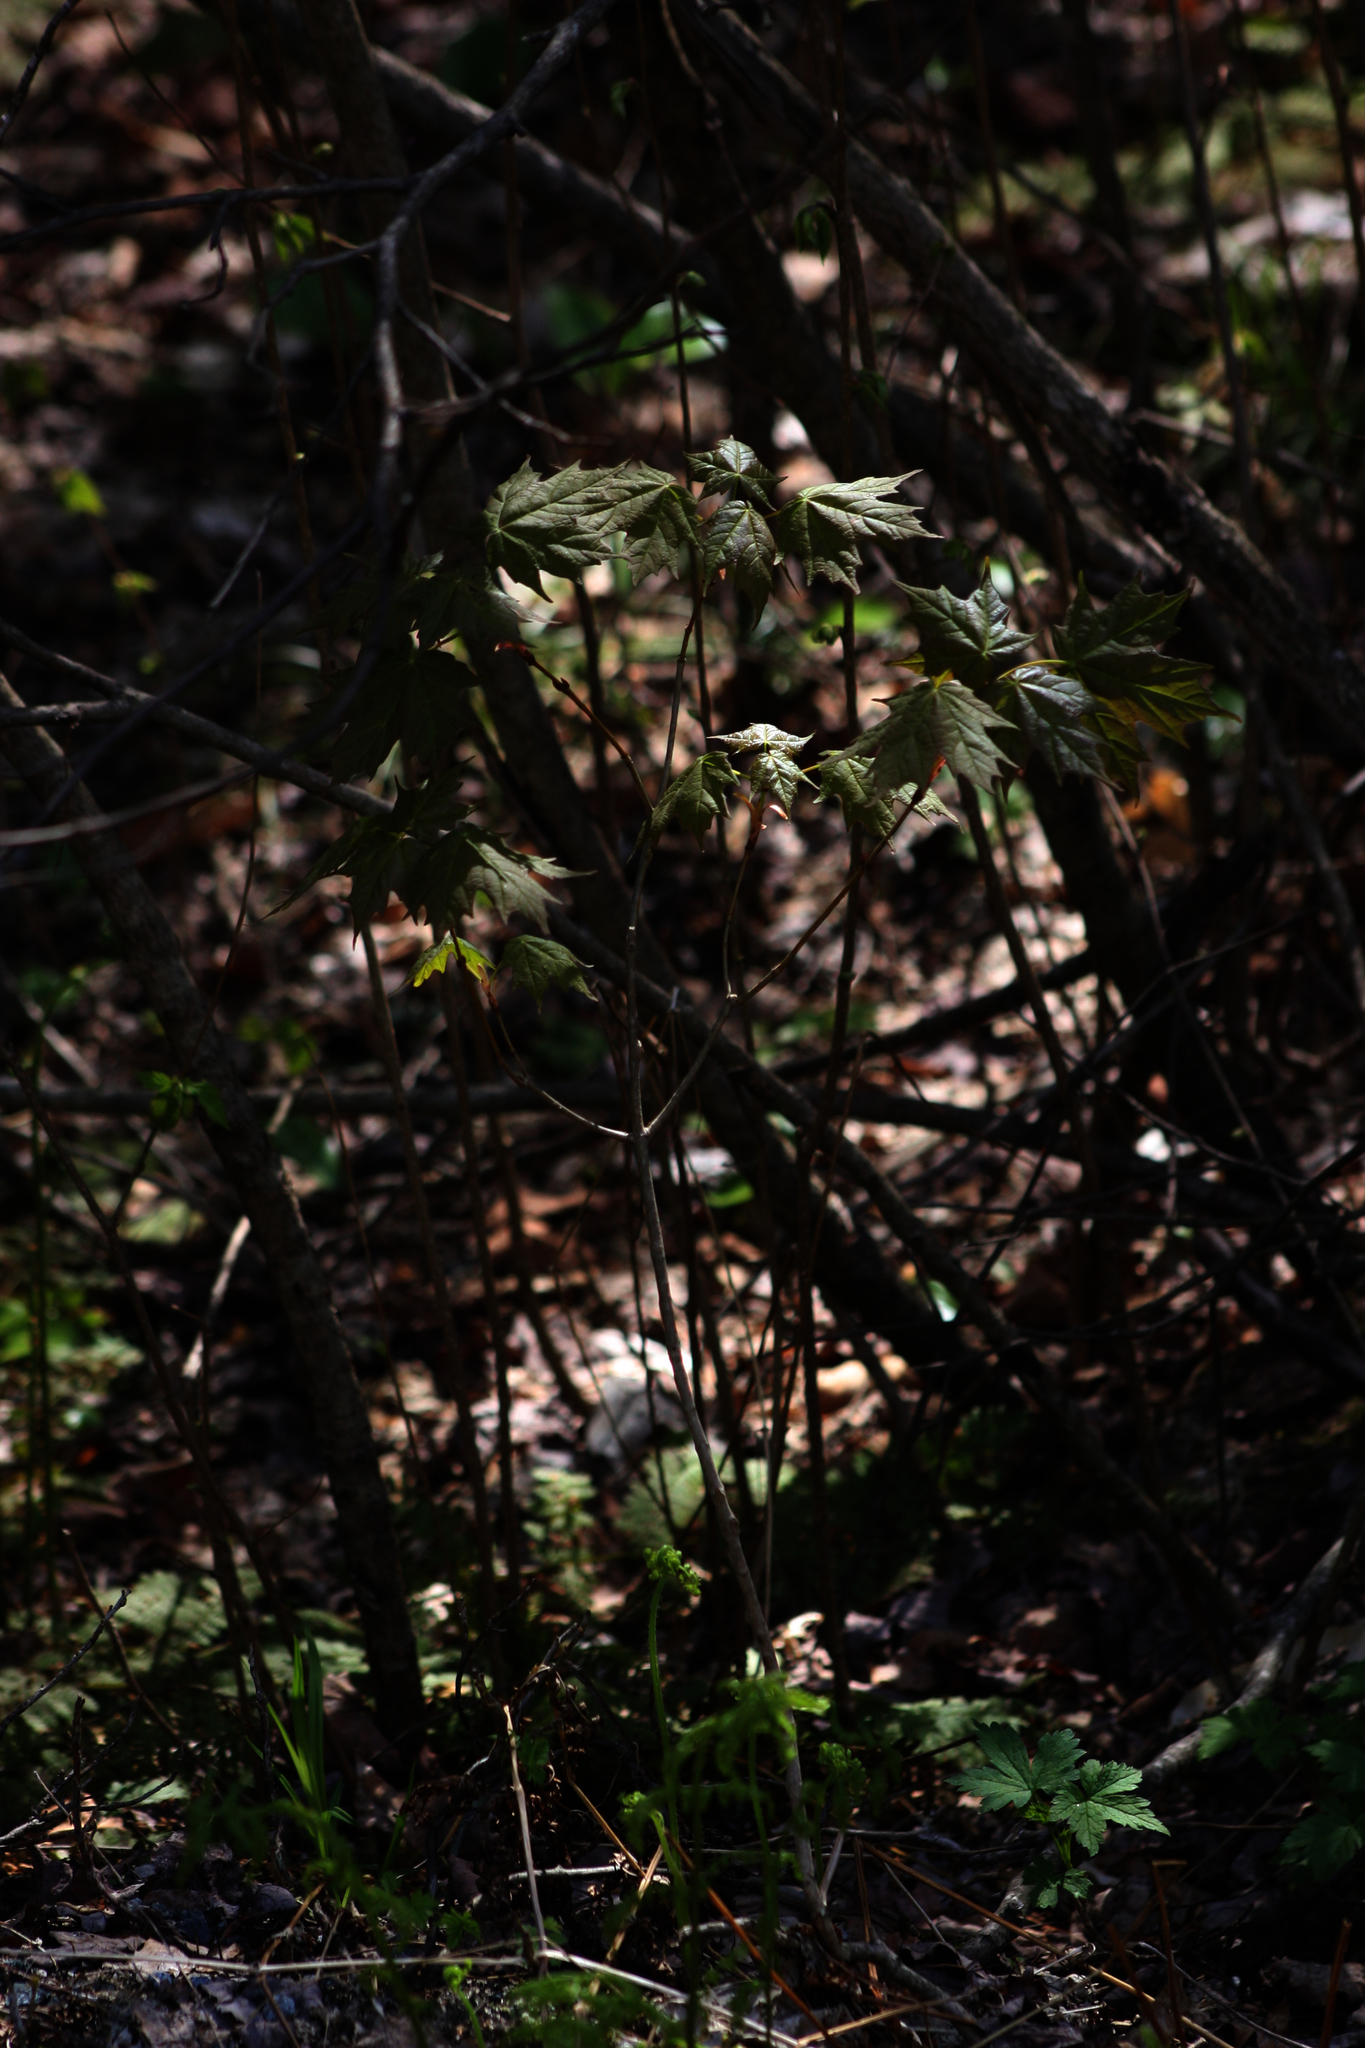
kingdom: Plantae
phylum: Tracheophyta
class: Magnoliopsida
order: Sapindales
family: Sapindaceae
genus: Acer
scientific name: Acer saccharum
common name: Sugar maple
